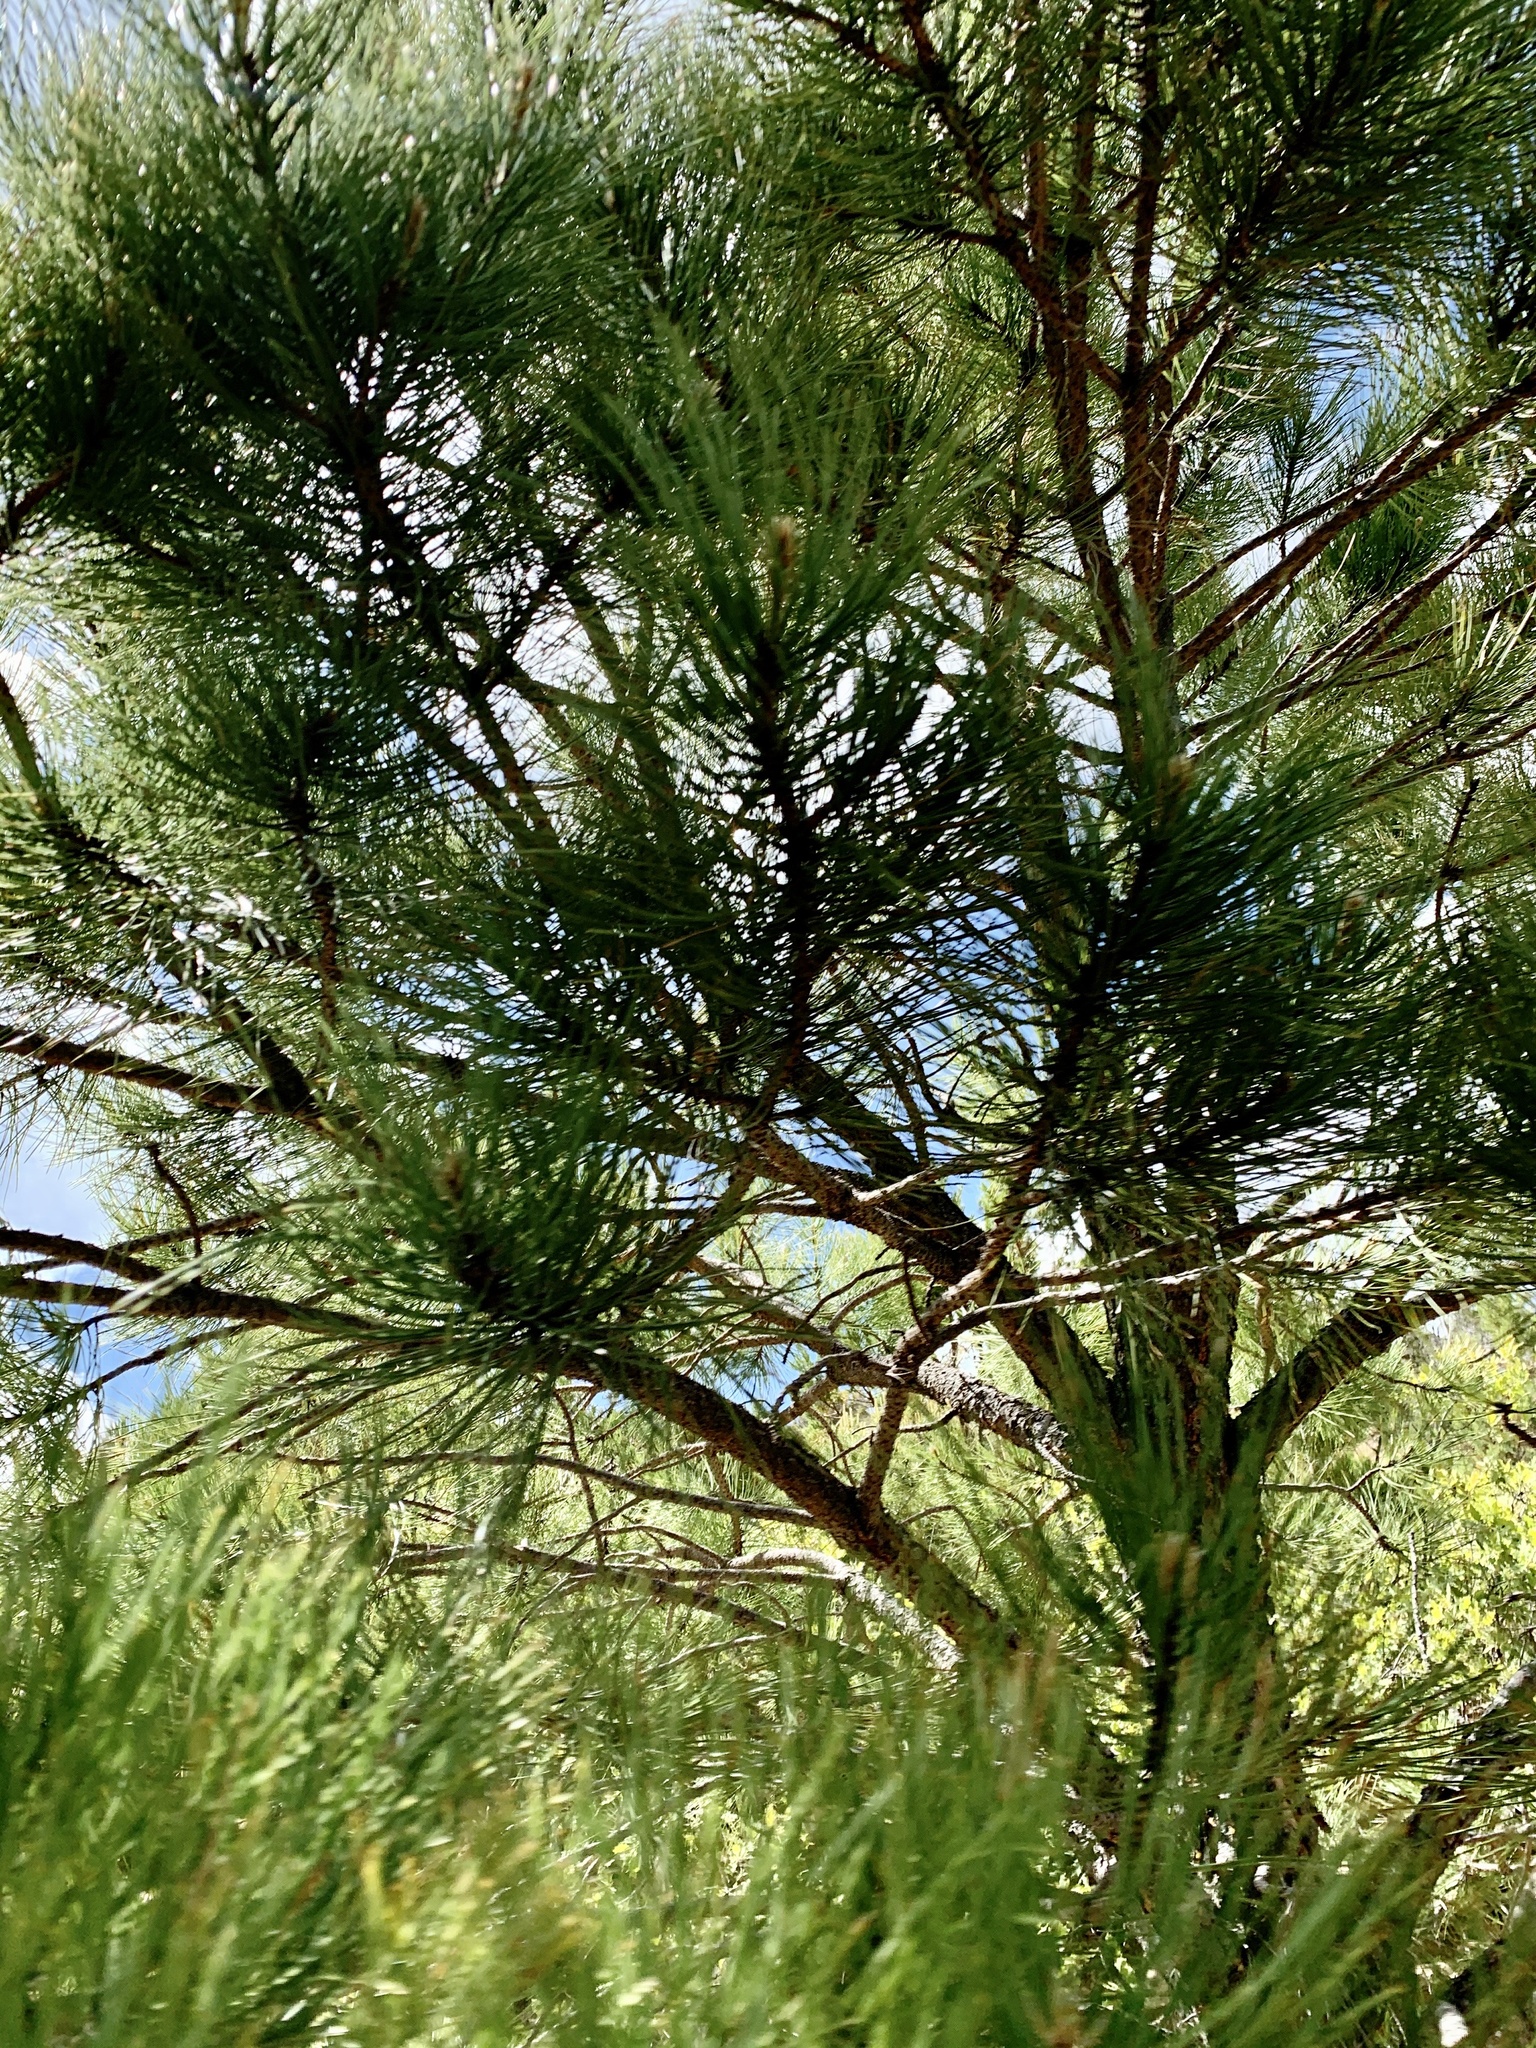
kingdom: Plantae
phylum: Tracheophyta
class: Pinopsida
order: Pinales
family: Pinaceae
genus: Pinus
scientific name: Pinus ponderosa
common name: Western yellow-pine
